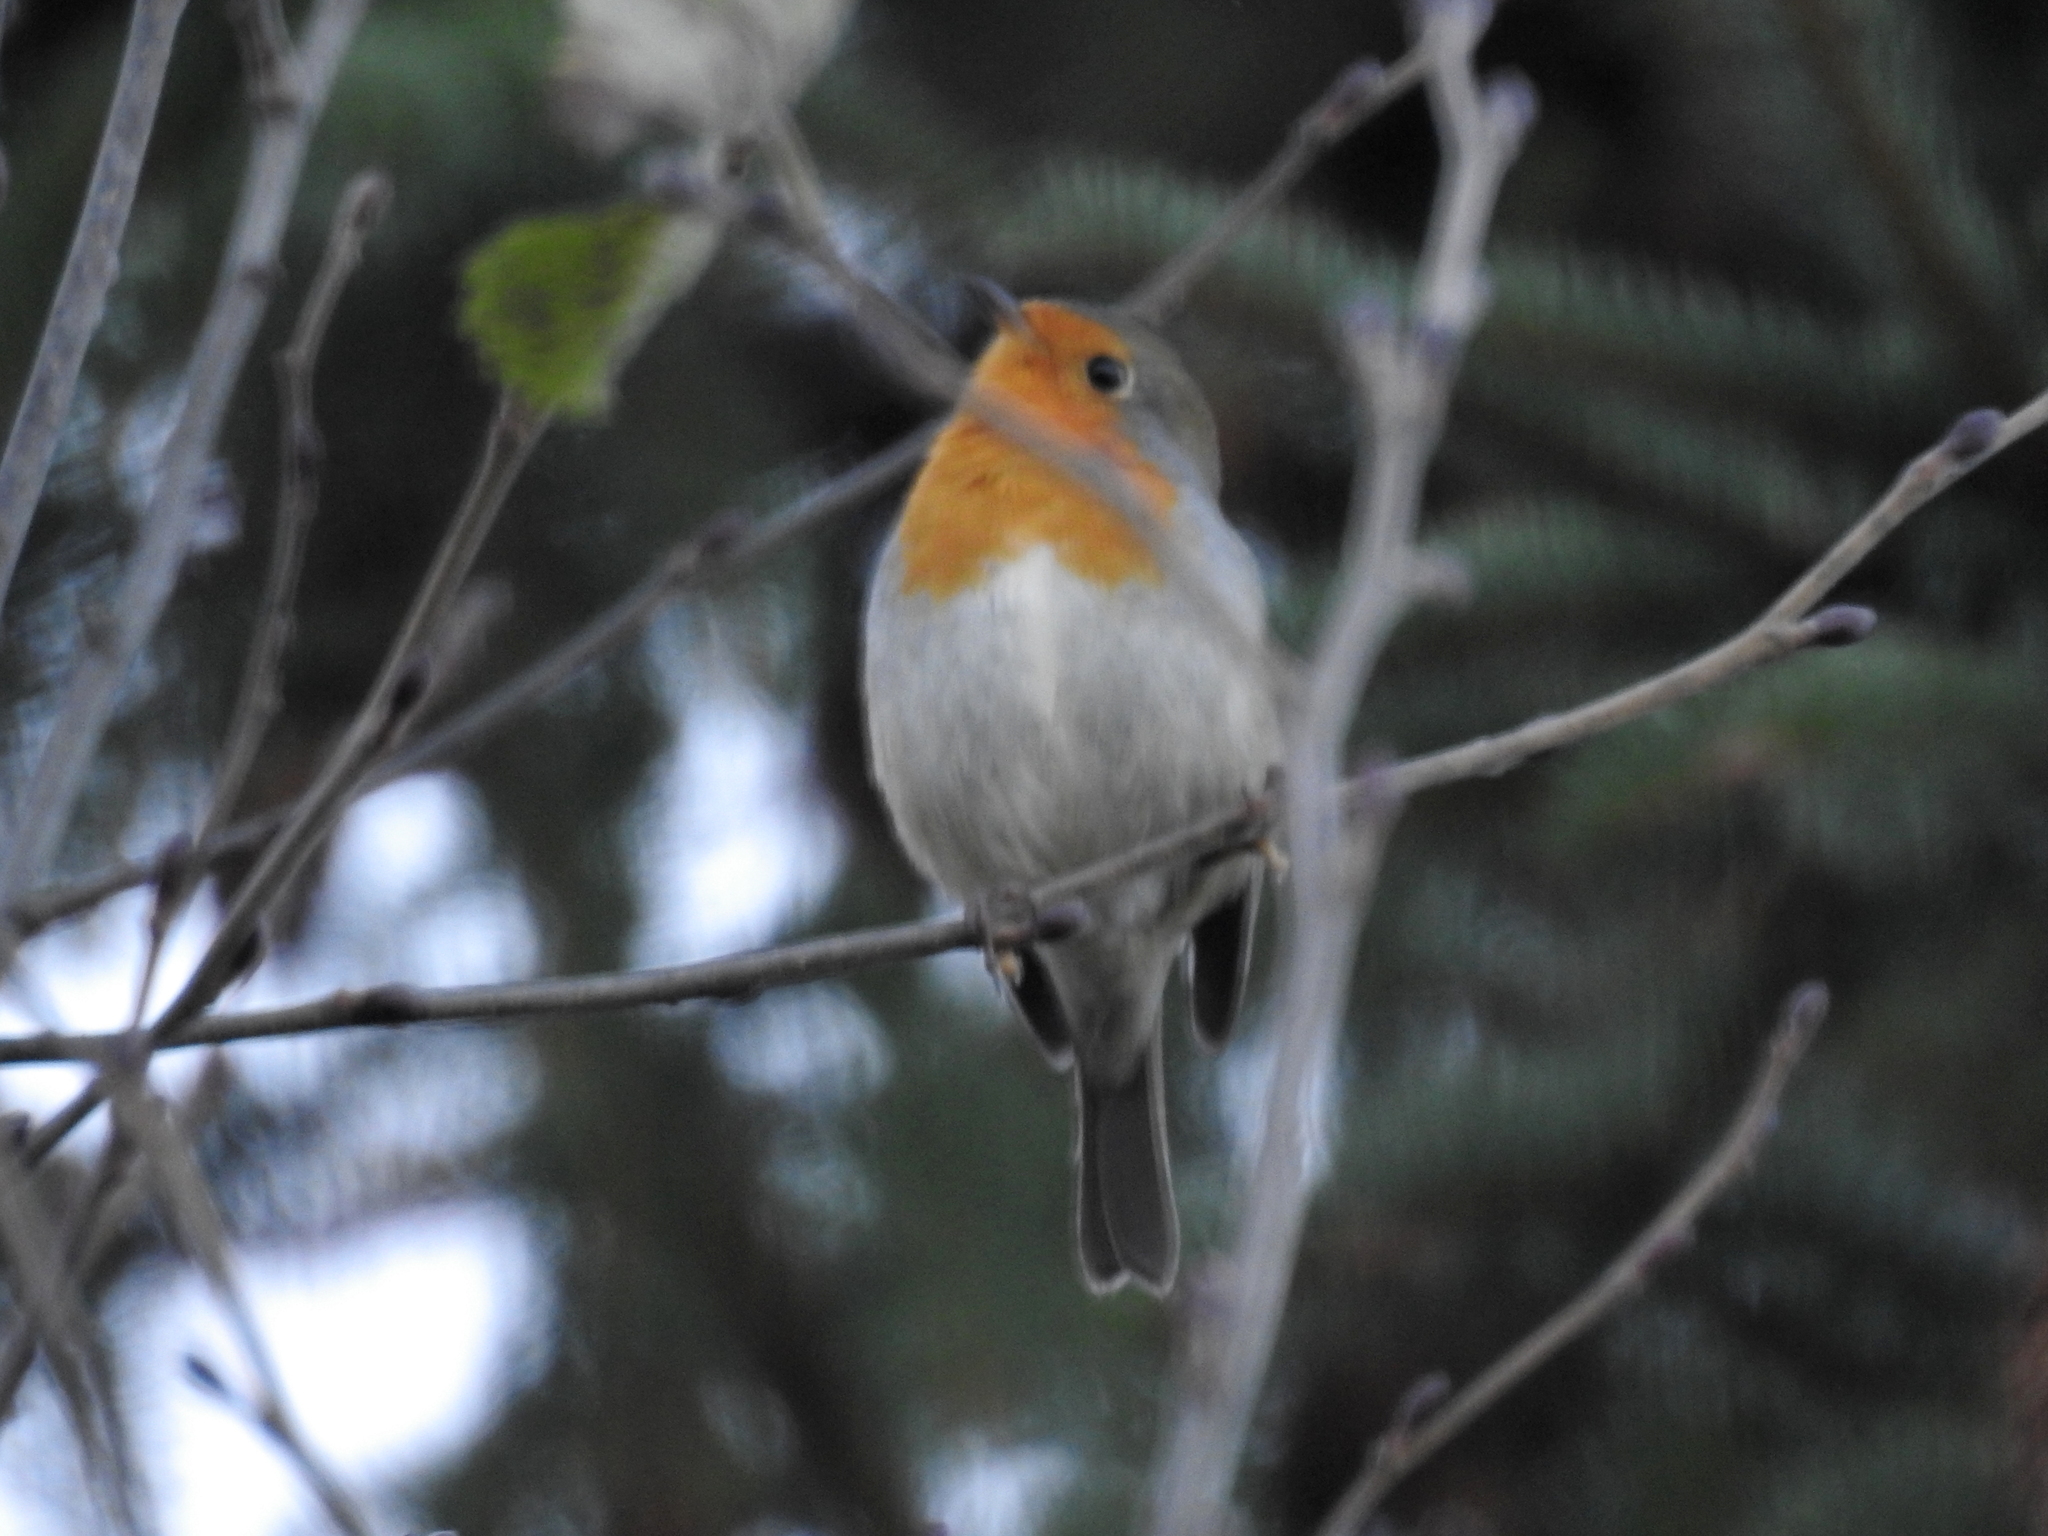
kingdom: Animalia
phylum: Chordata
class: Aves
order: Passeriformes
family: Muscicapidae
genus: Erithacus
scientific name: Erithacus rubecula
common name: European robin
